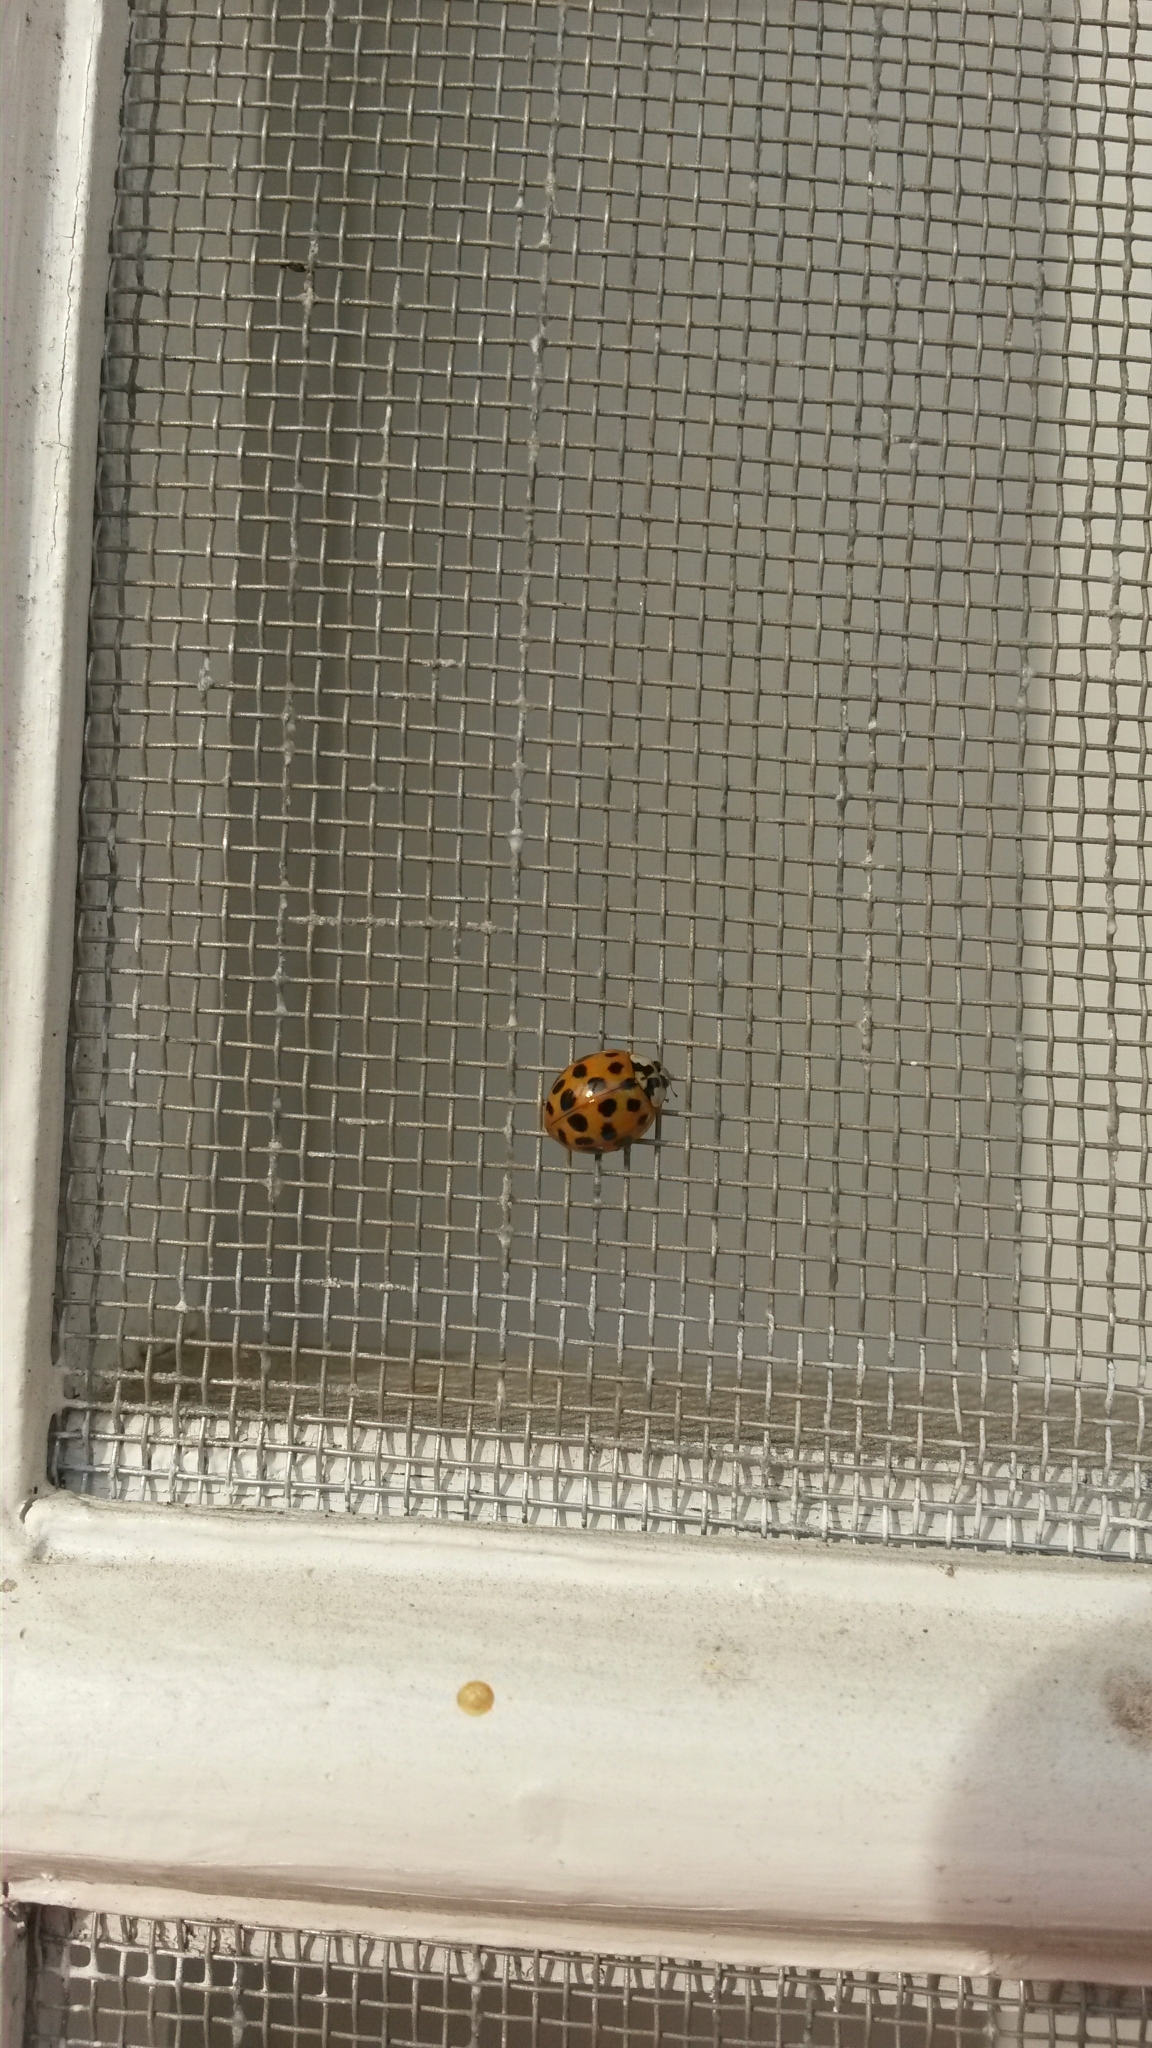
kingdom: Animalia
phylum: Arthropoda
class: Insecta
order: Coleoptera
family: Coccinellidae
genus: Harmonia
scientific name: Harmonia axyridis
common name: Harlequin ladybird
